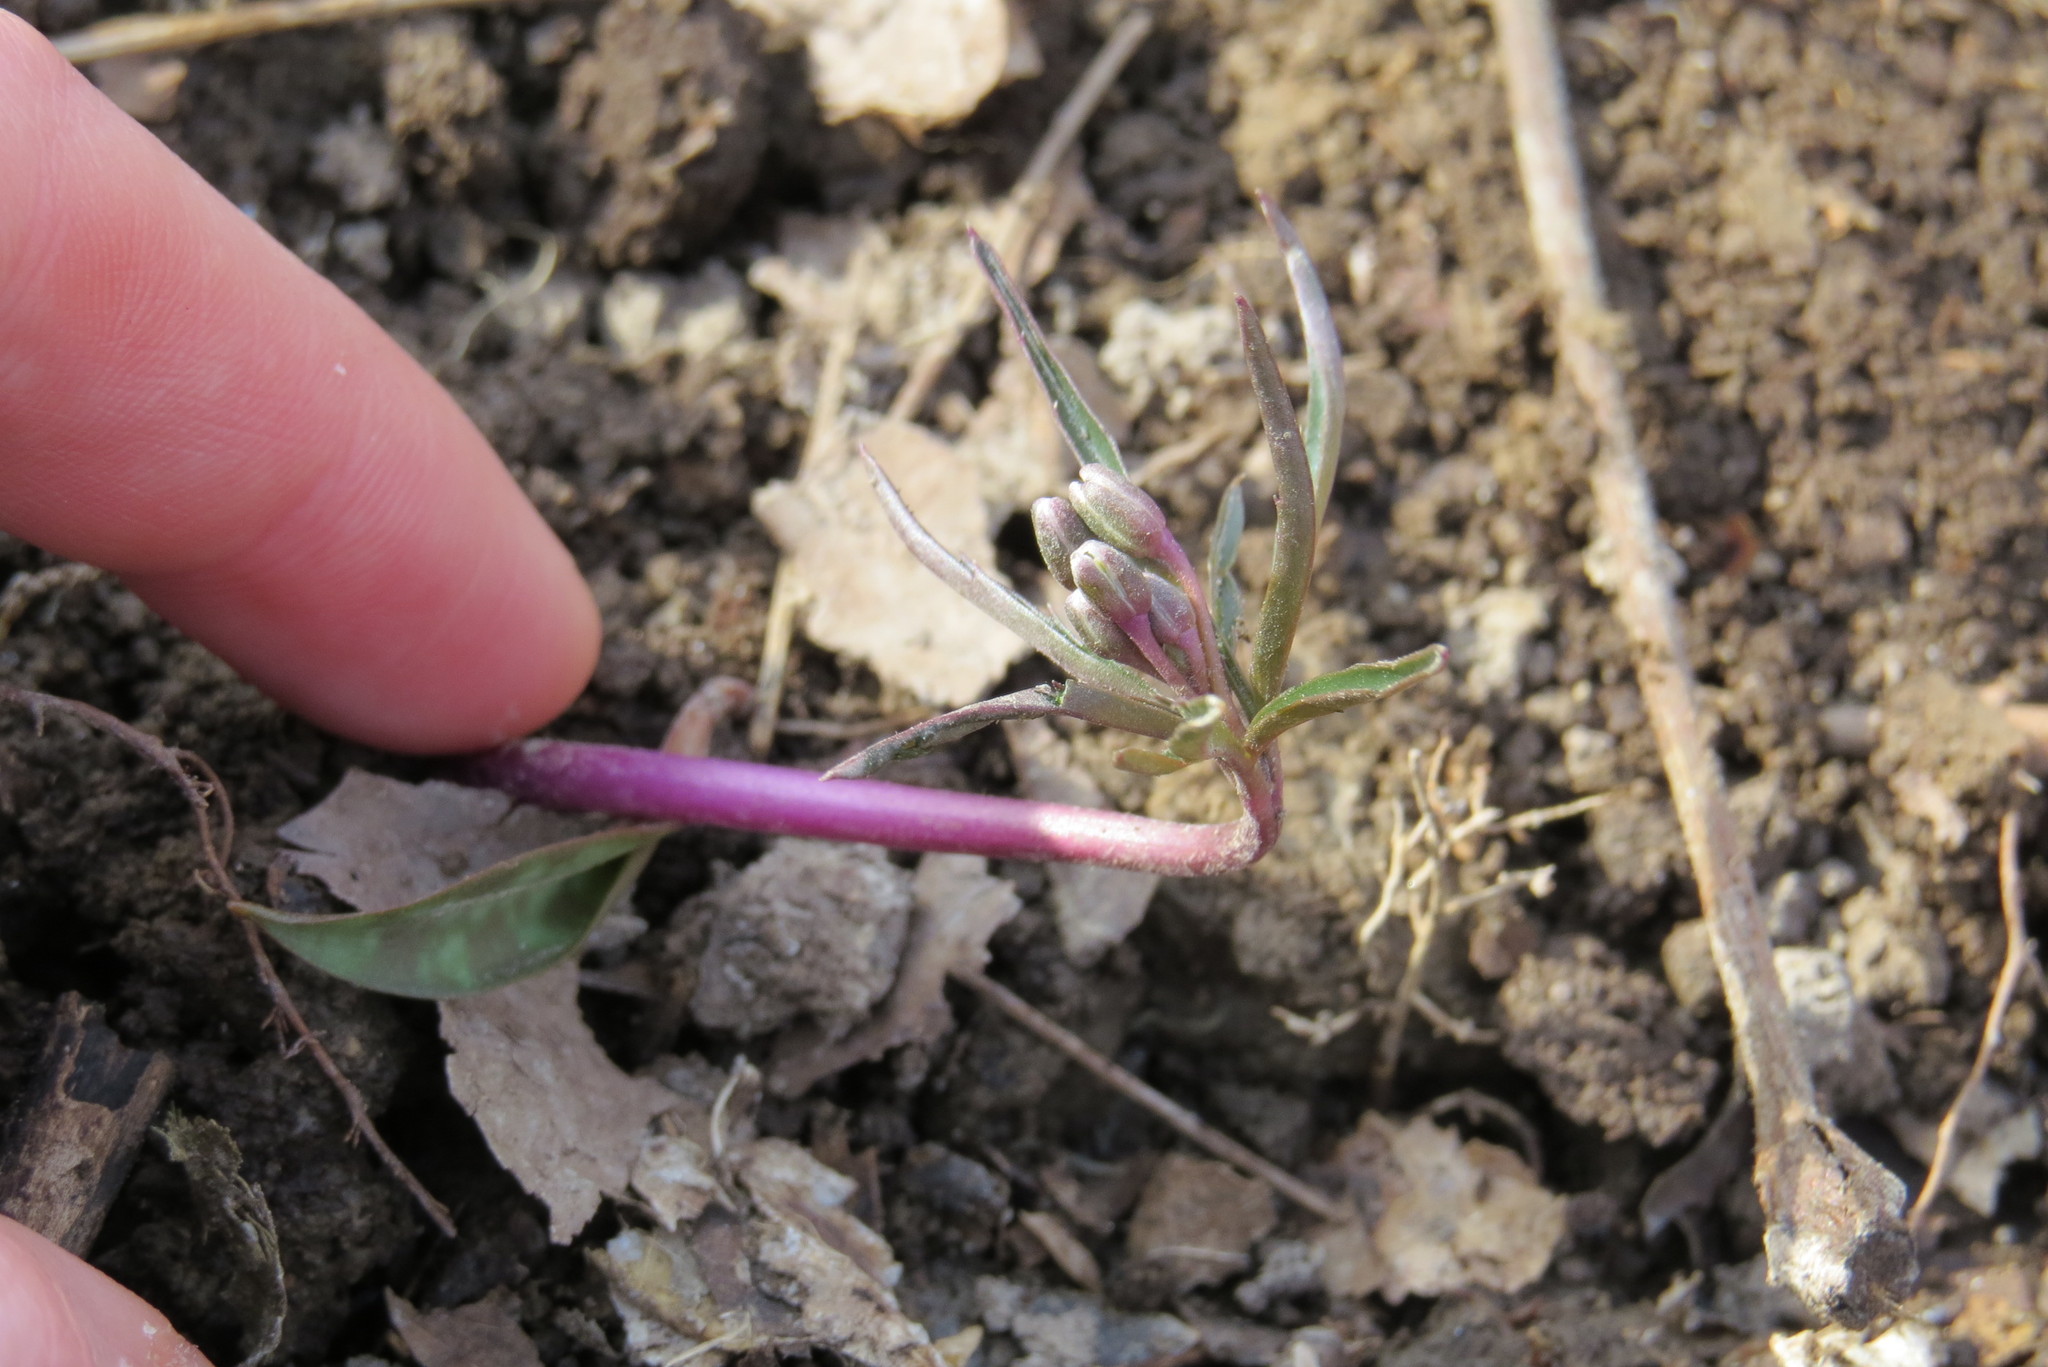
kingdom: Plantae
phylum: Tracheophyta
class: Magnoliopsida
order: Brassicales
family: Brassicaceae
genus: Cardamine
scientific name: Cardamine concatenata
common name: Cut-leaf toothcup
